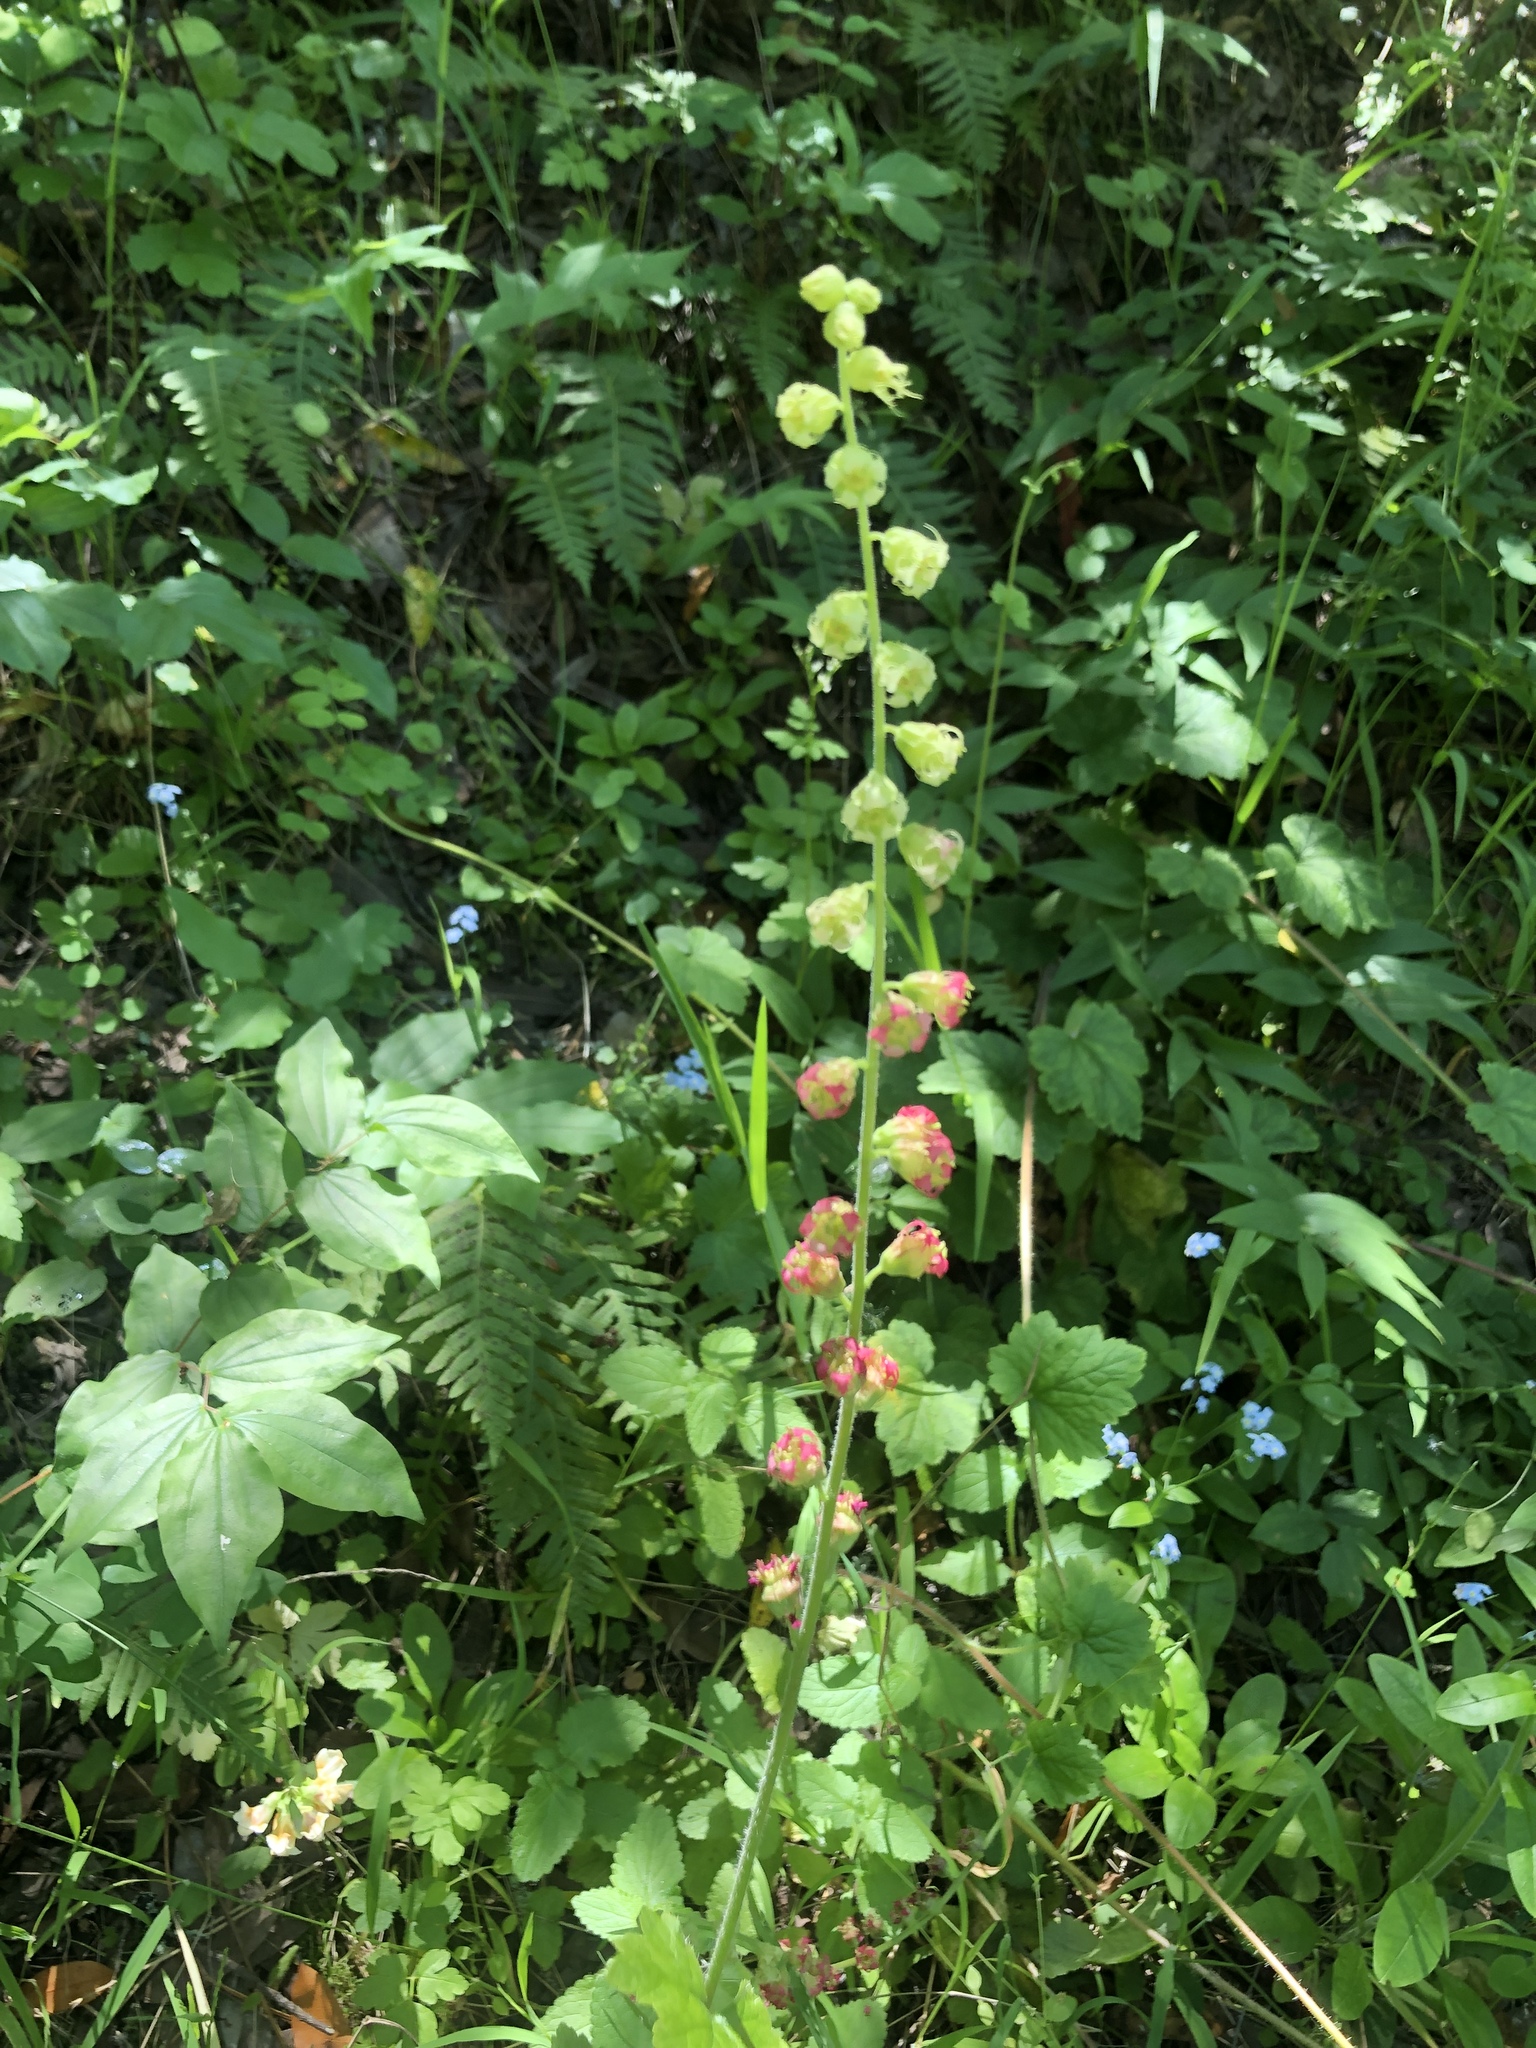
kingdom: Plantae
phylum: Tracheophyta
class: Magnoliopsida
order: Saxifragales
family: Saxifragaceae
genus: Tellima
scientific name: Tellima grandiflora
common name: Fringecups
